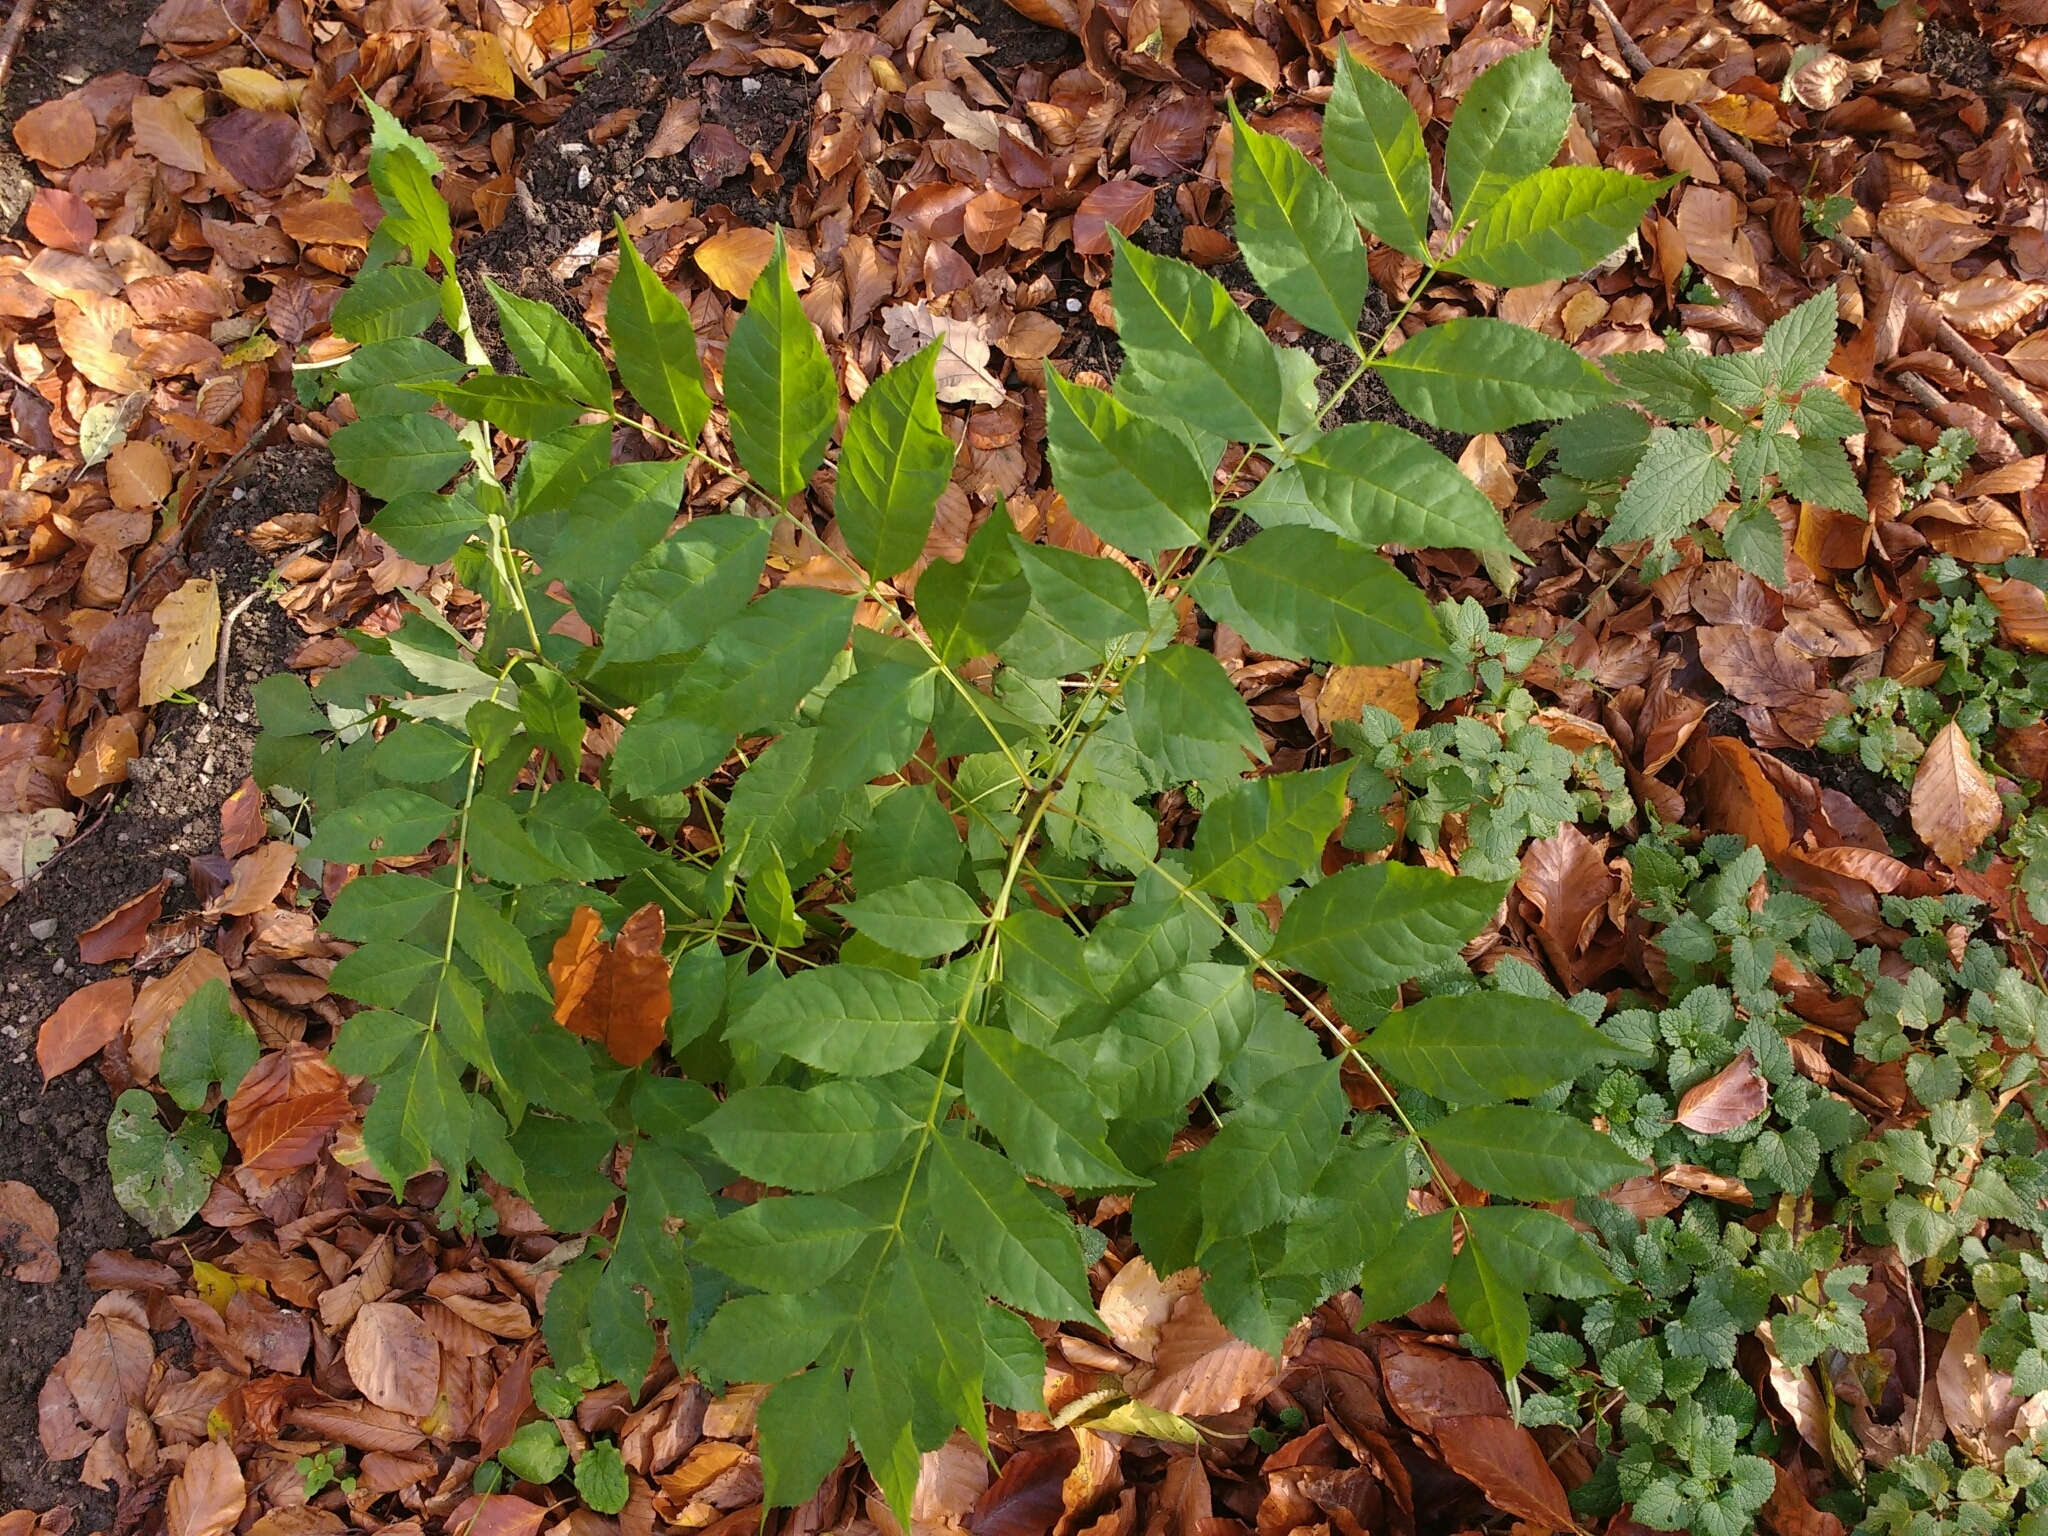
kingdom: Plantae
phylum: Tracheophyta
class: Magnoliopsida
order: Lamiales
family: Oleaceae
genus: Fraxinus
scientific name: Fraxinus excelsior
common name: European ash
